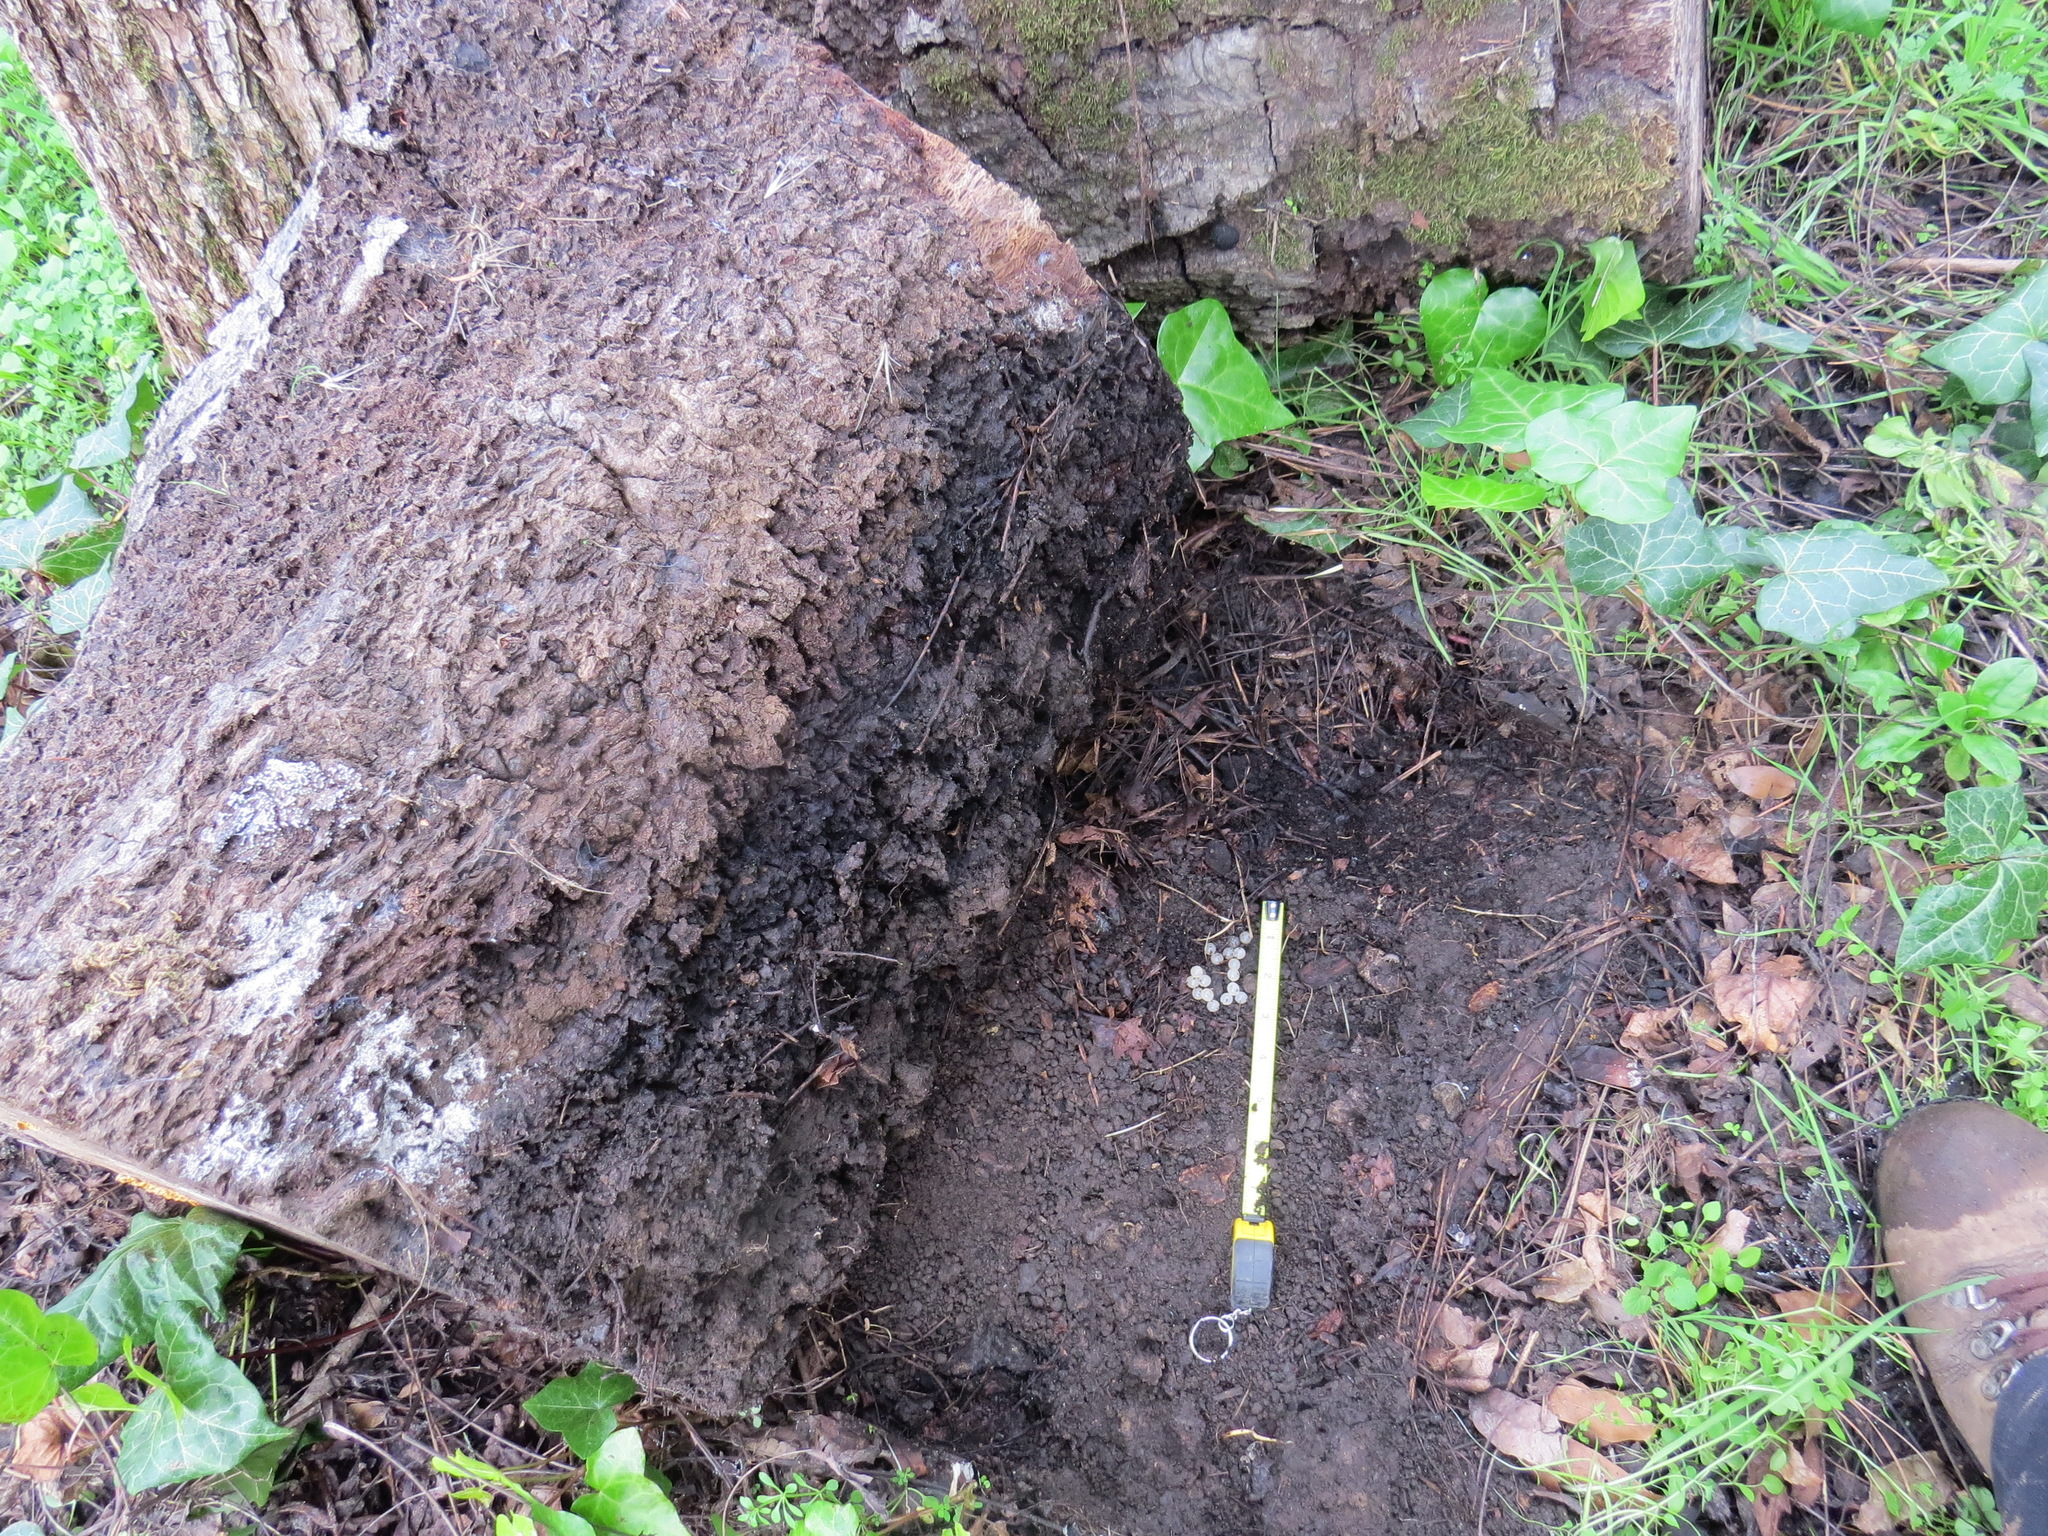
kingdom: Animalia
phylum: Chordata
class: Amphibia
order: Caudata
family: Plethodontidae
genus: Aneides
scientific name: Aneides lugubris
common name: Arboreal salamander
